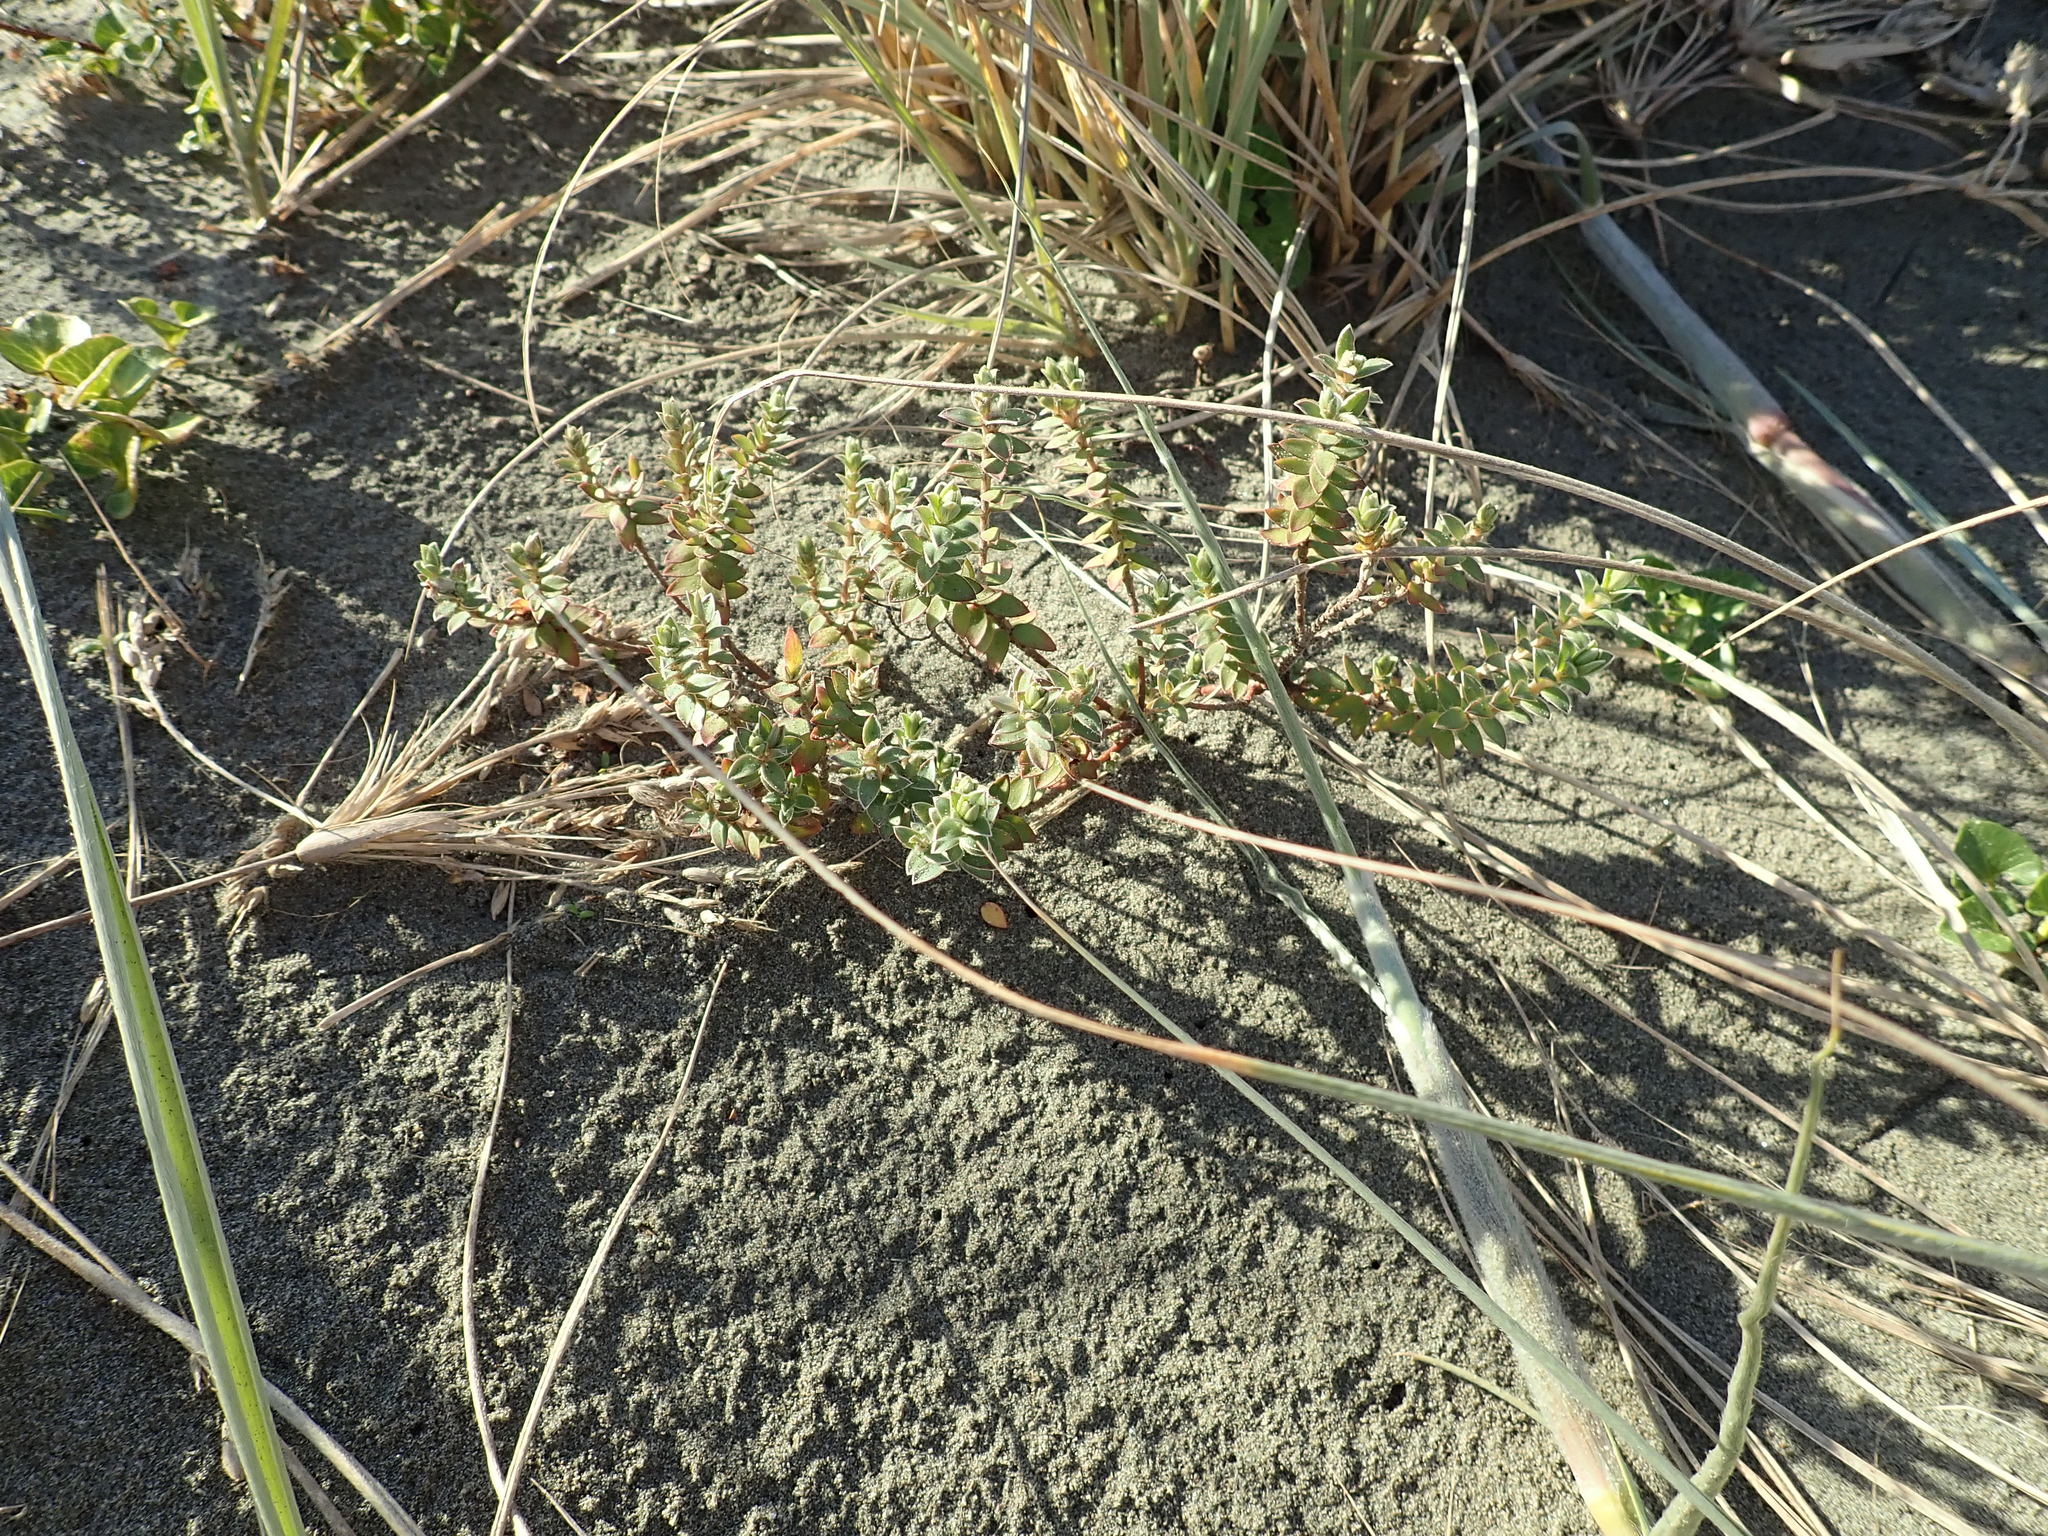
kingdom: Plantae
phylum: Tracheophyta
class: Magnoliopsida
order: Malvales
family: Thymelaeaceae
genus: Pimelea
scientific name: Pimelea villosa
